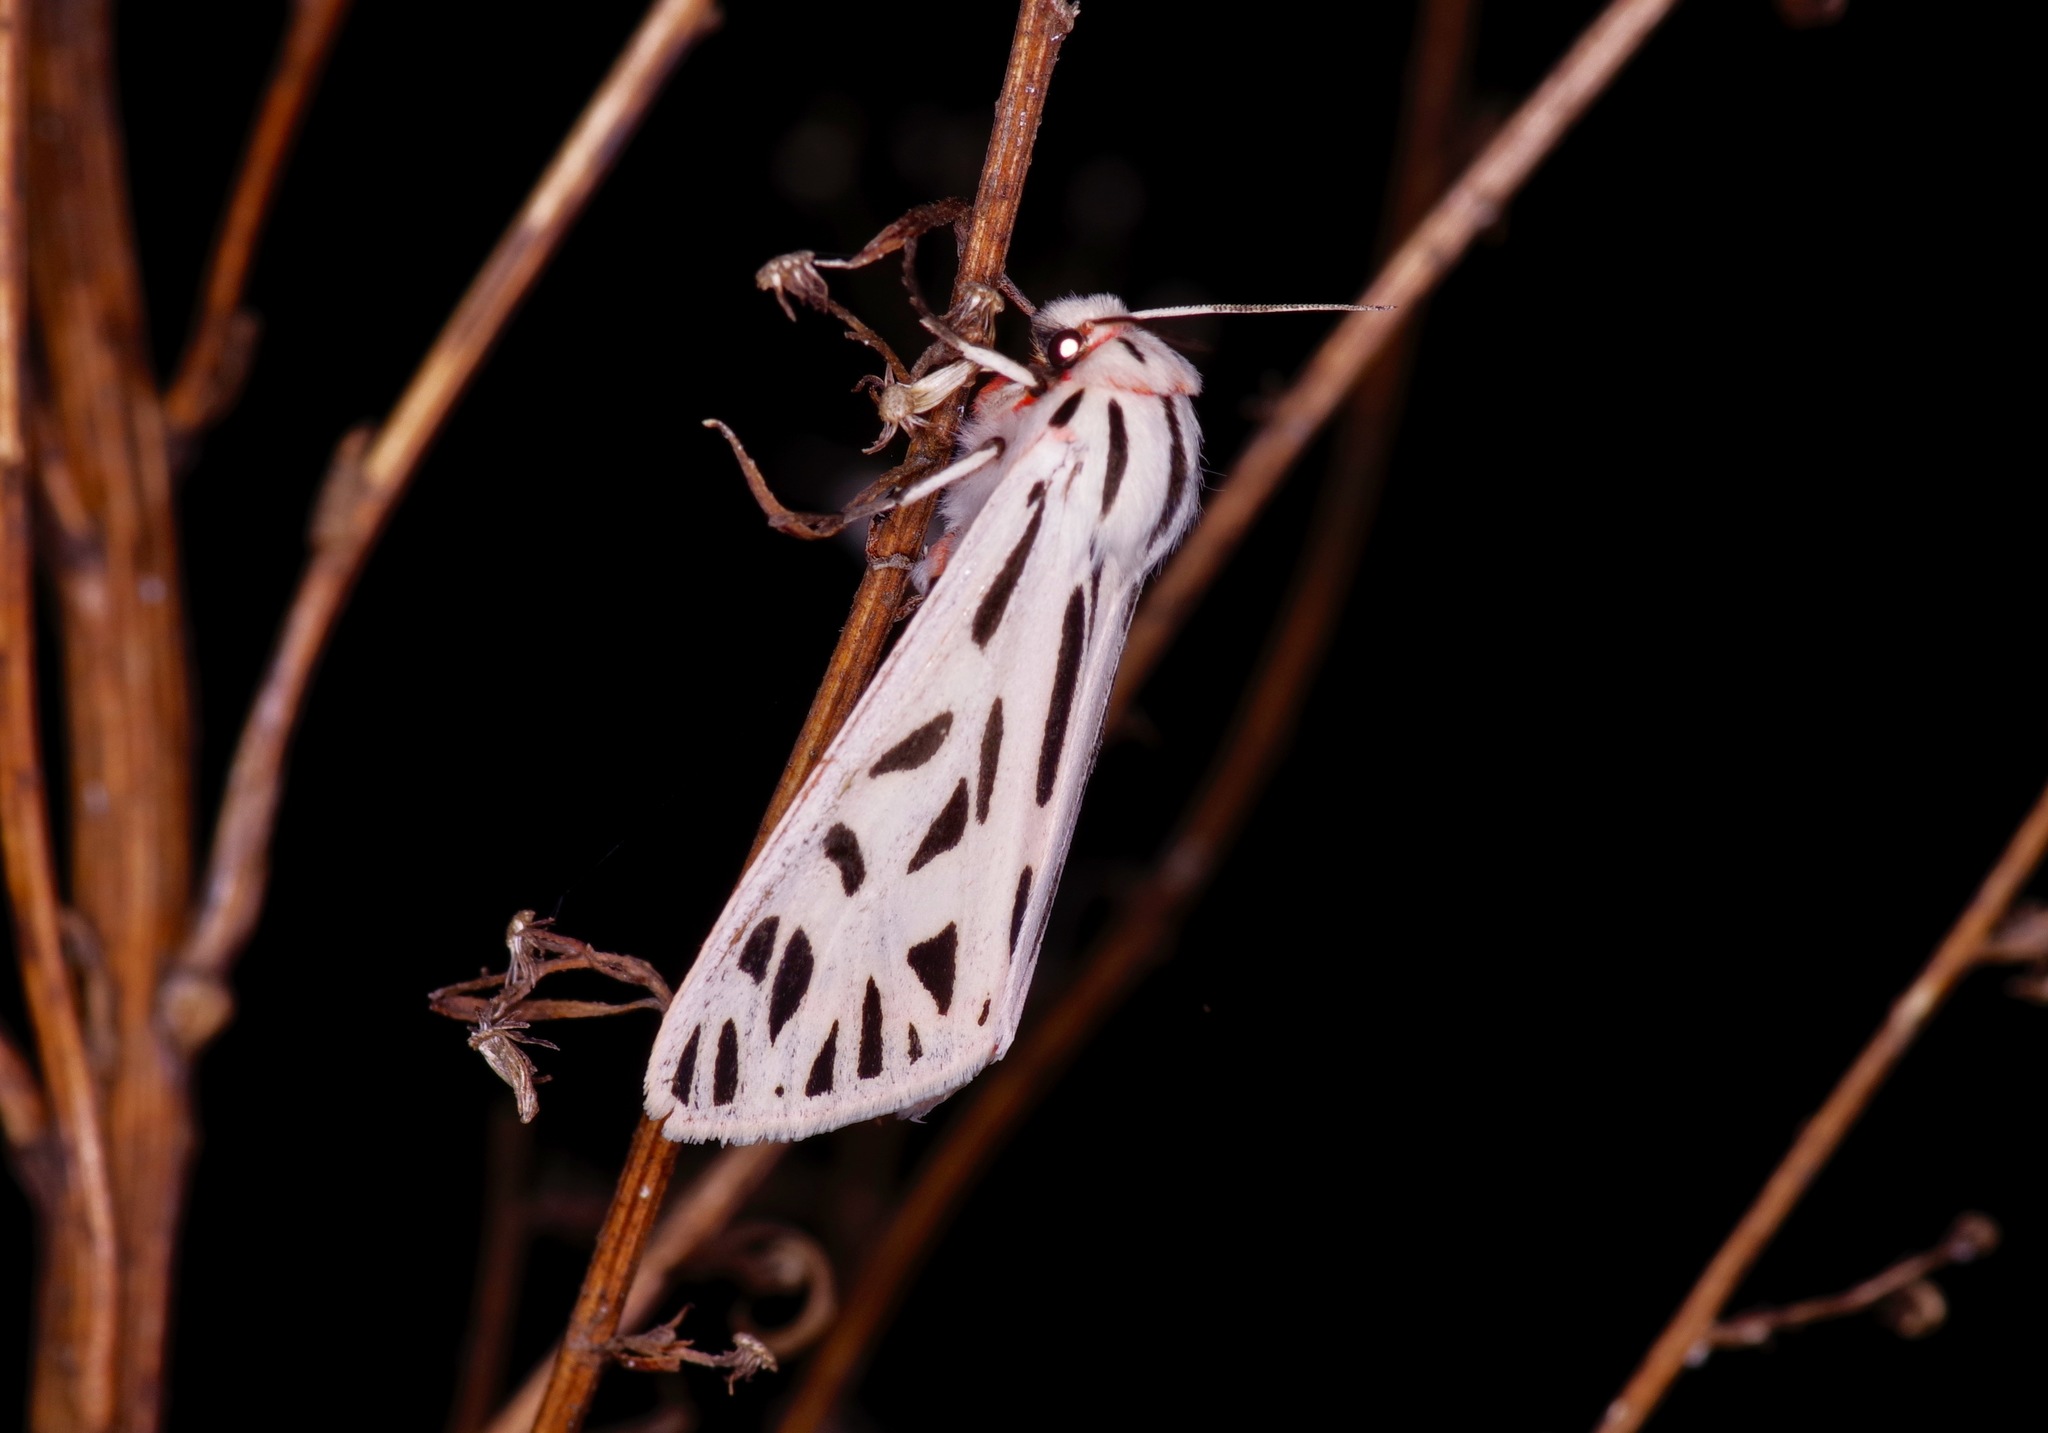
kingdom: Animalia
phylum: Arthropoda
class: Insecta
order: Lepidoptera
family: Erebidae
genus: Apantesis
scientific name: Apantesis arge
